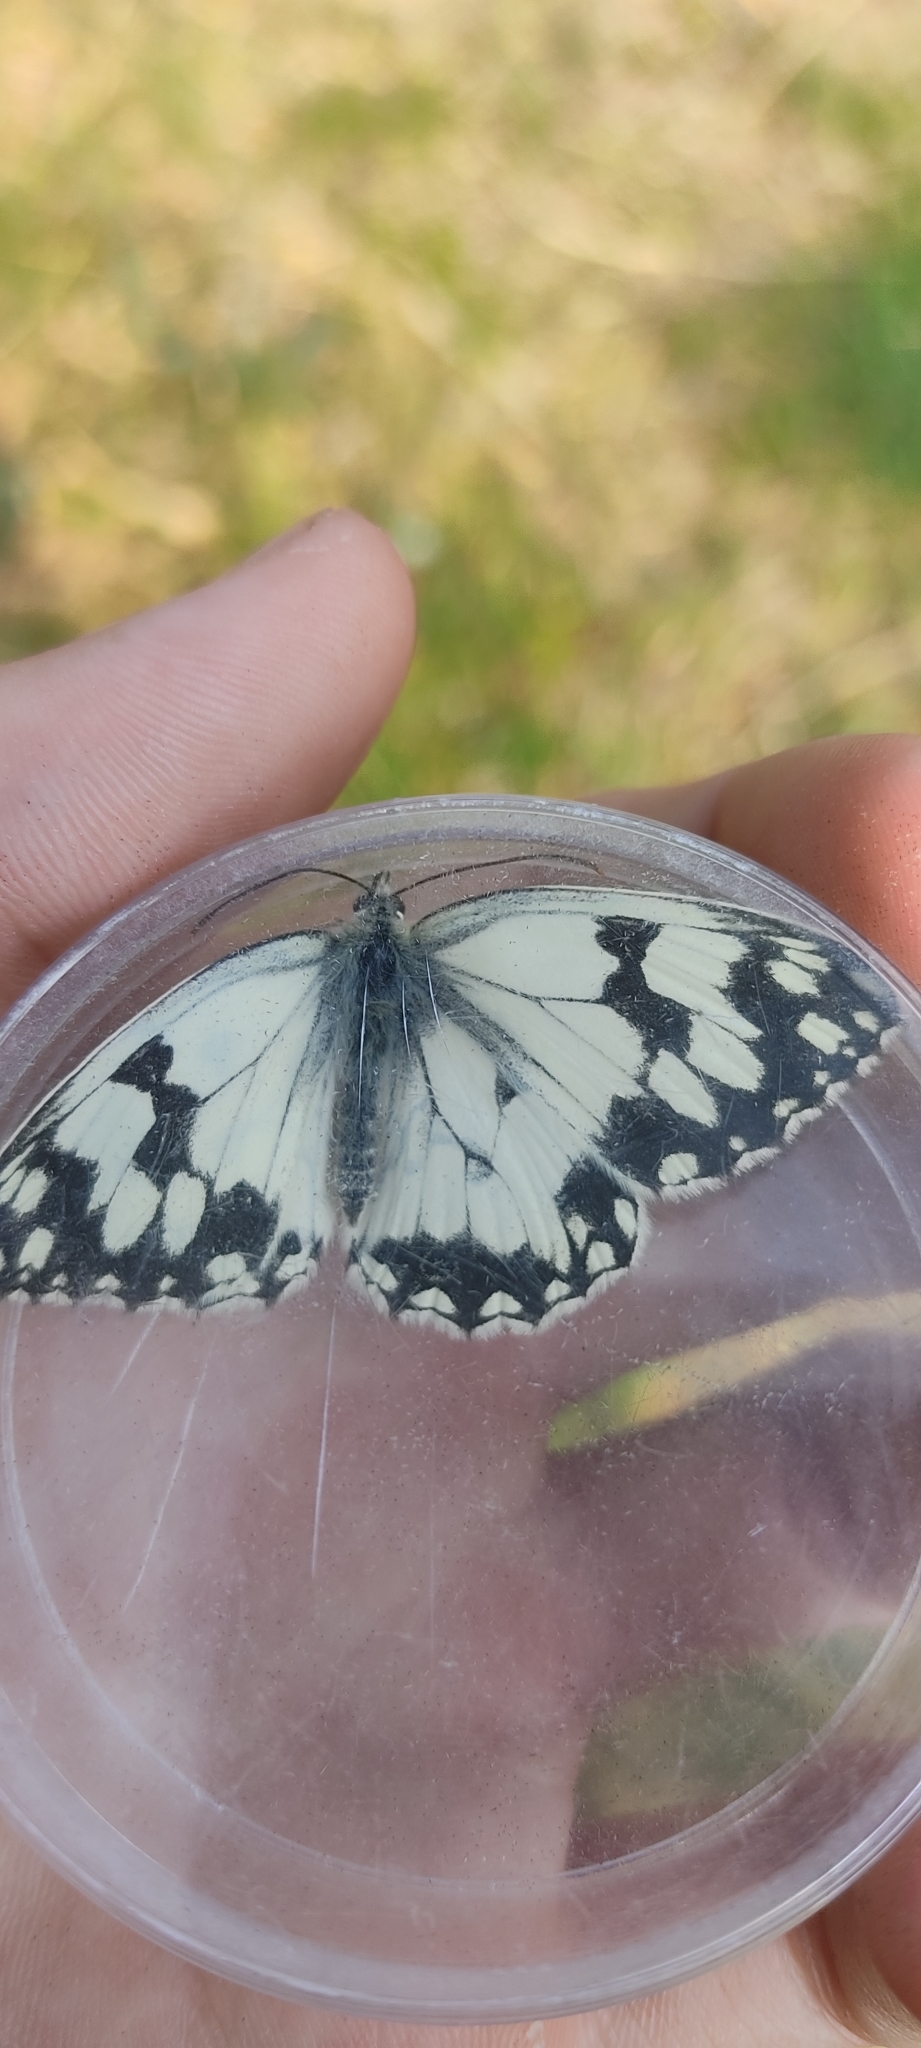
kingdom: Animalia
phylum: Arthropoda
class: Insecta
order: Lepidoptera
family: Nymphalidae
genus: Melanargia
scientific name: Melanargia lachesis
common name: Iberian marbled white
